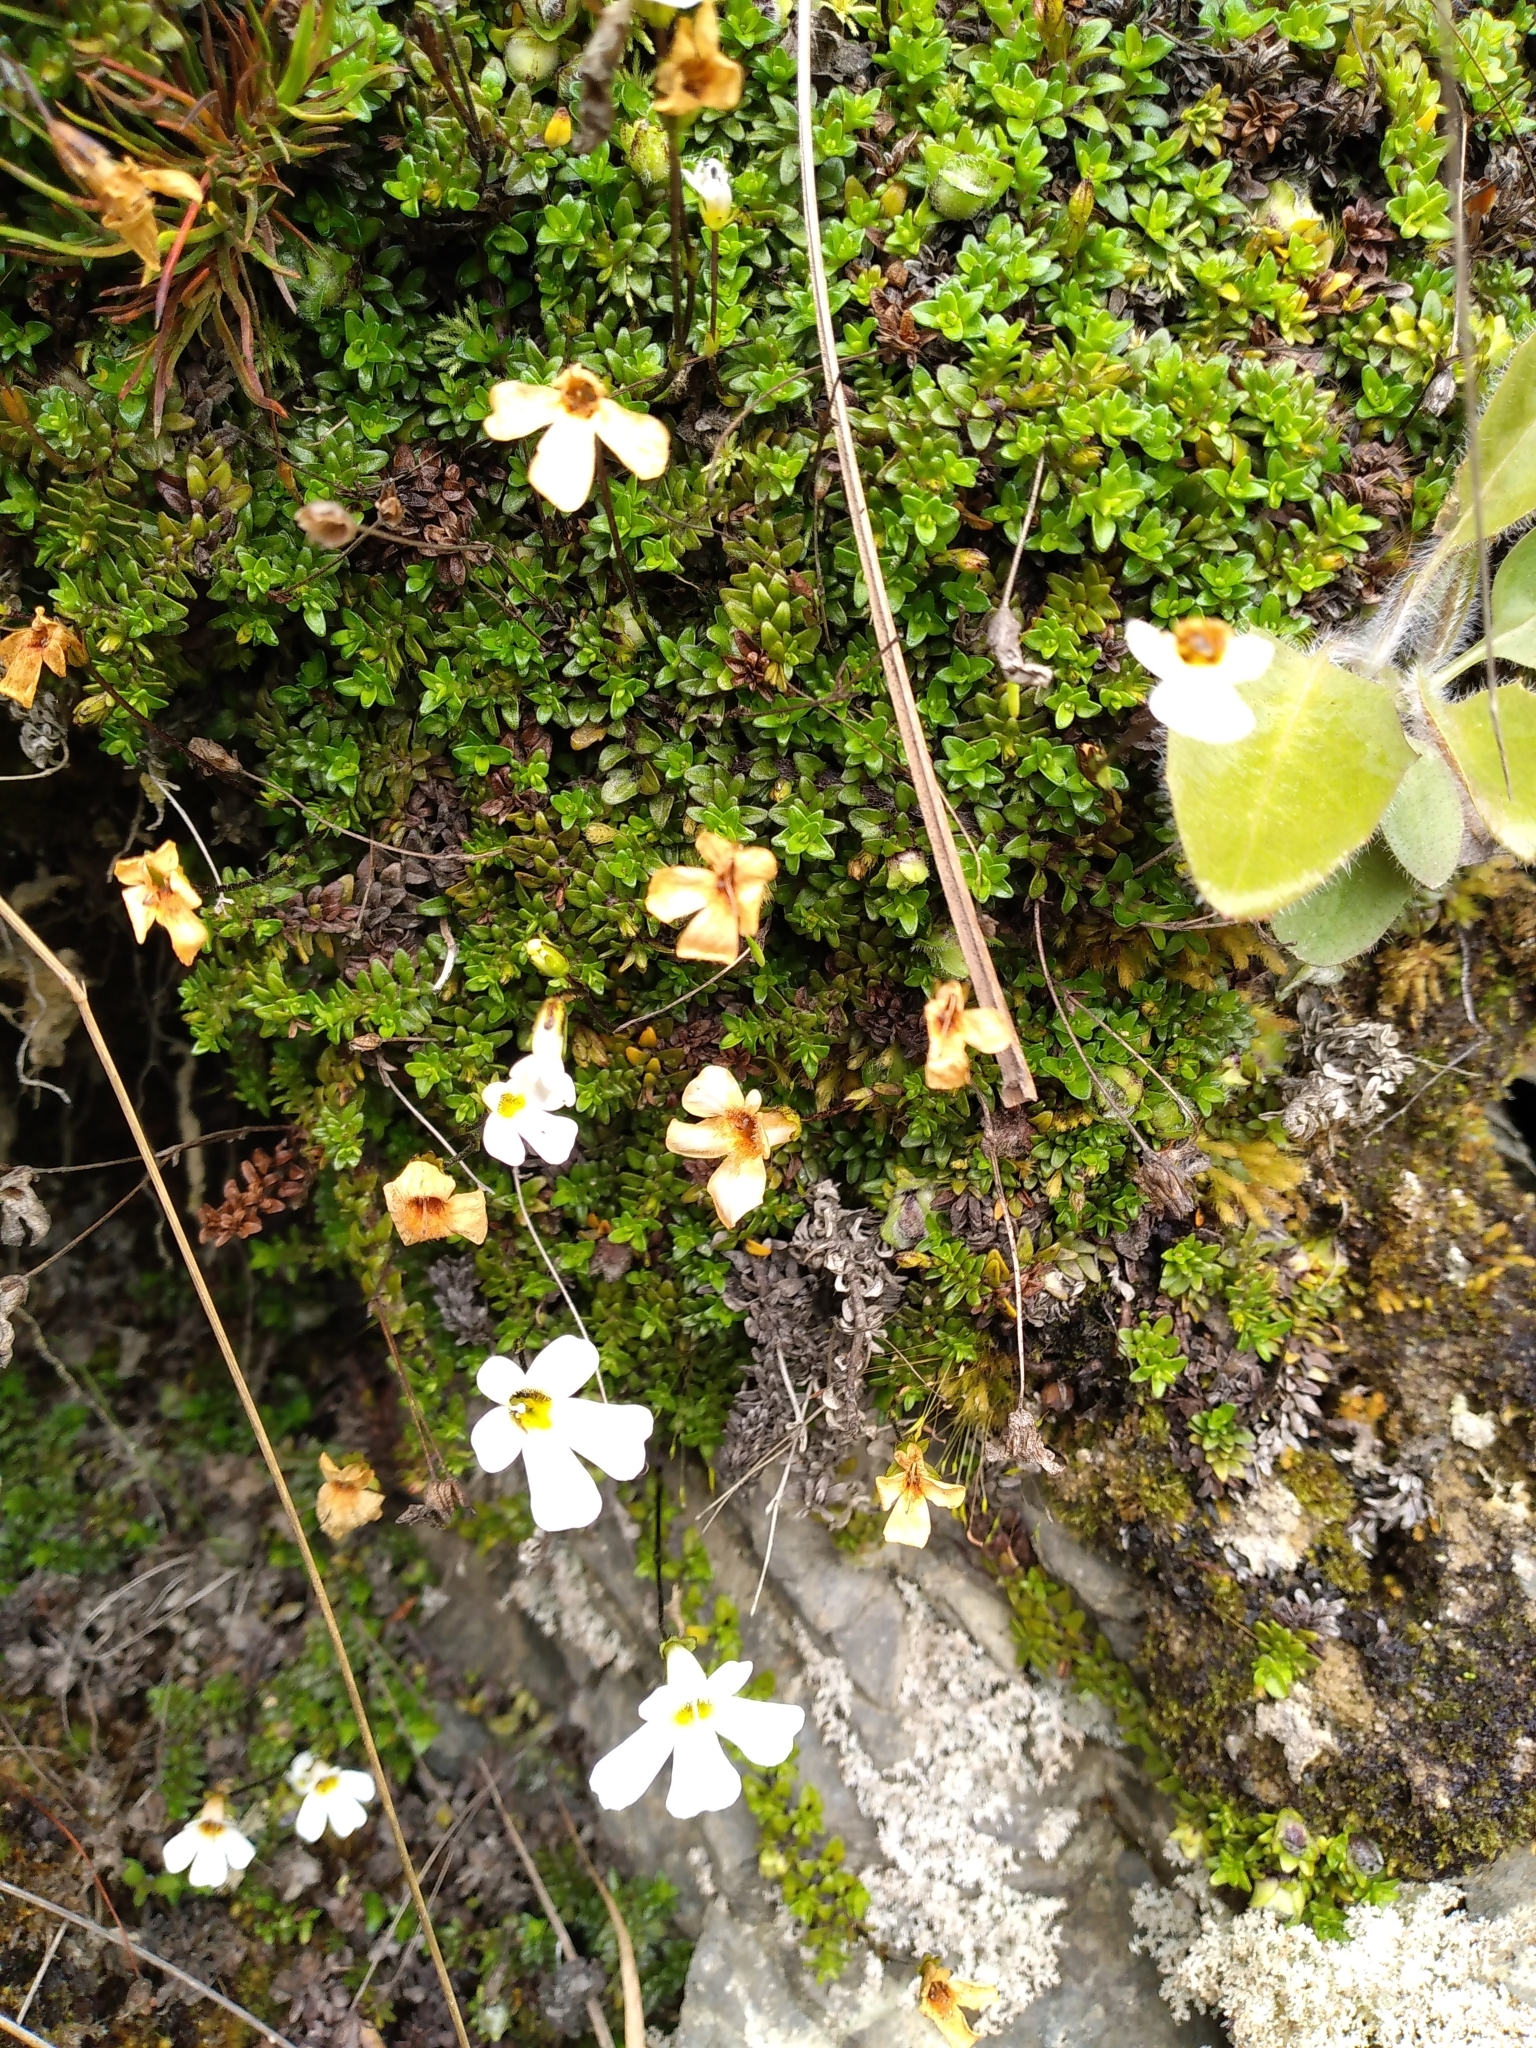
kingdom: Plantae
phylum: Tracheophyta
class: Magnoliopsida
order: Lamiales
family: Plantaginaceae
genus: Ourisia
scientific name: Ourisia caespitosa
